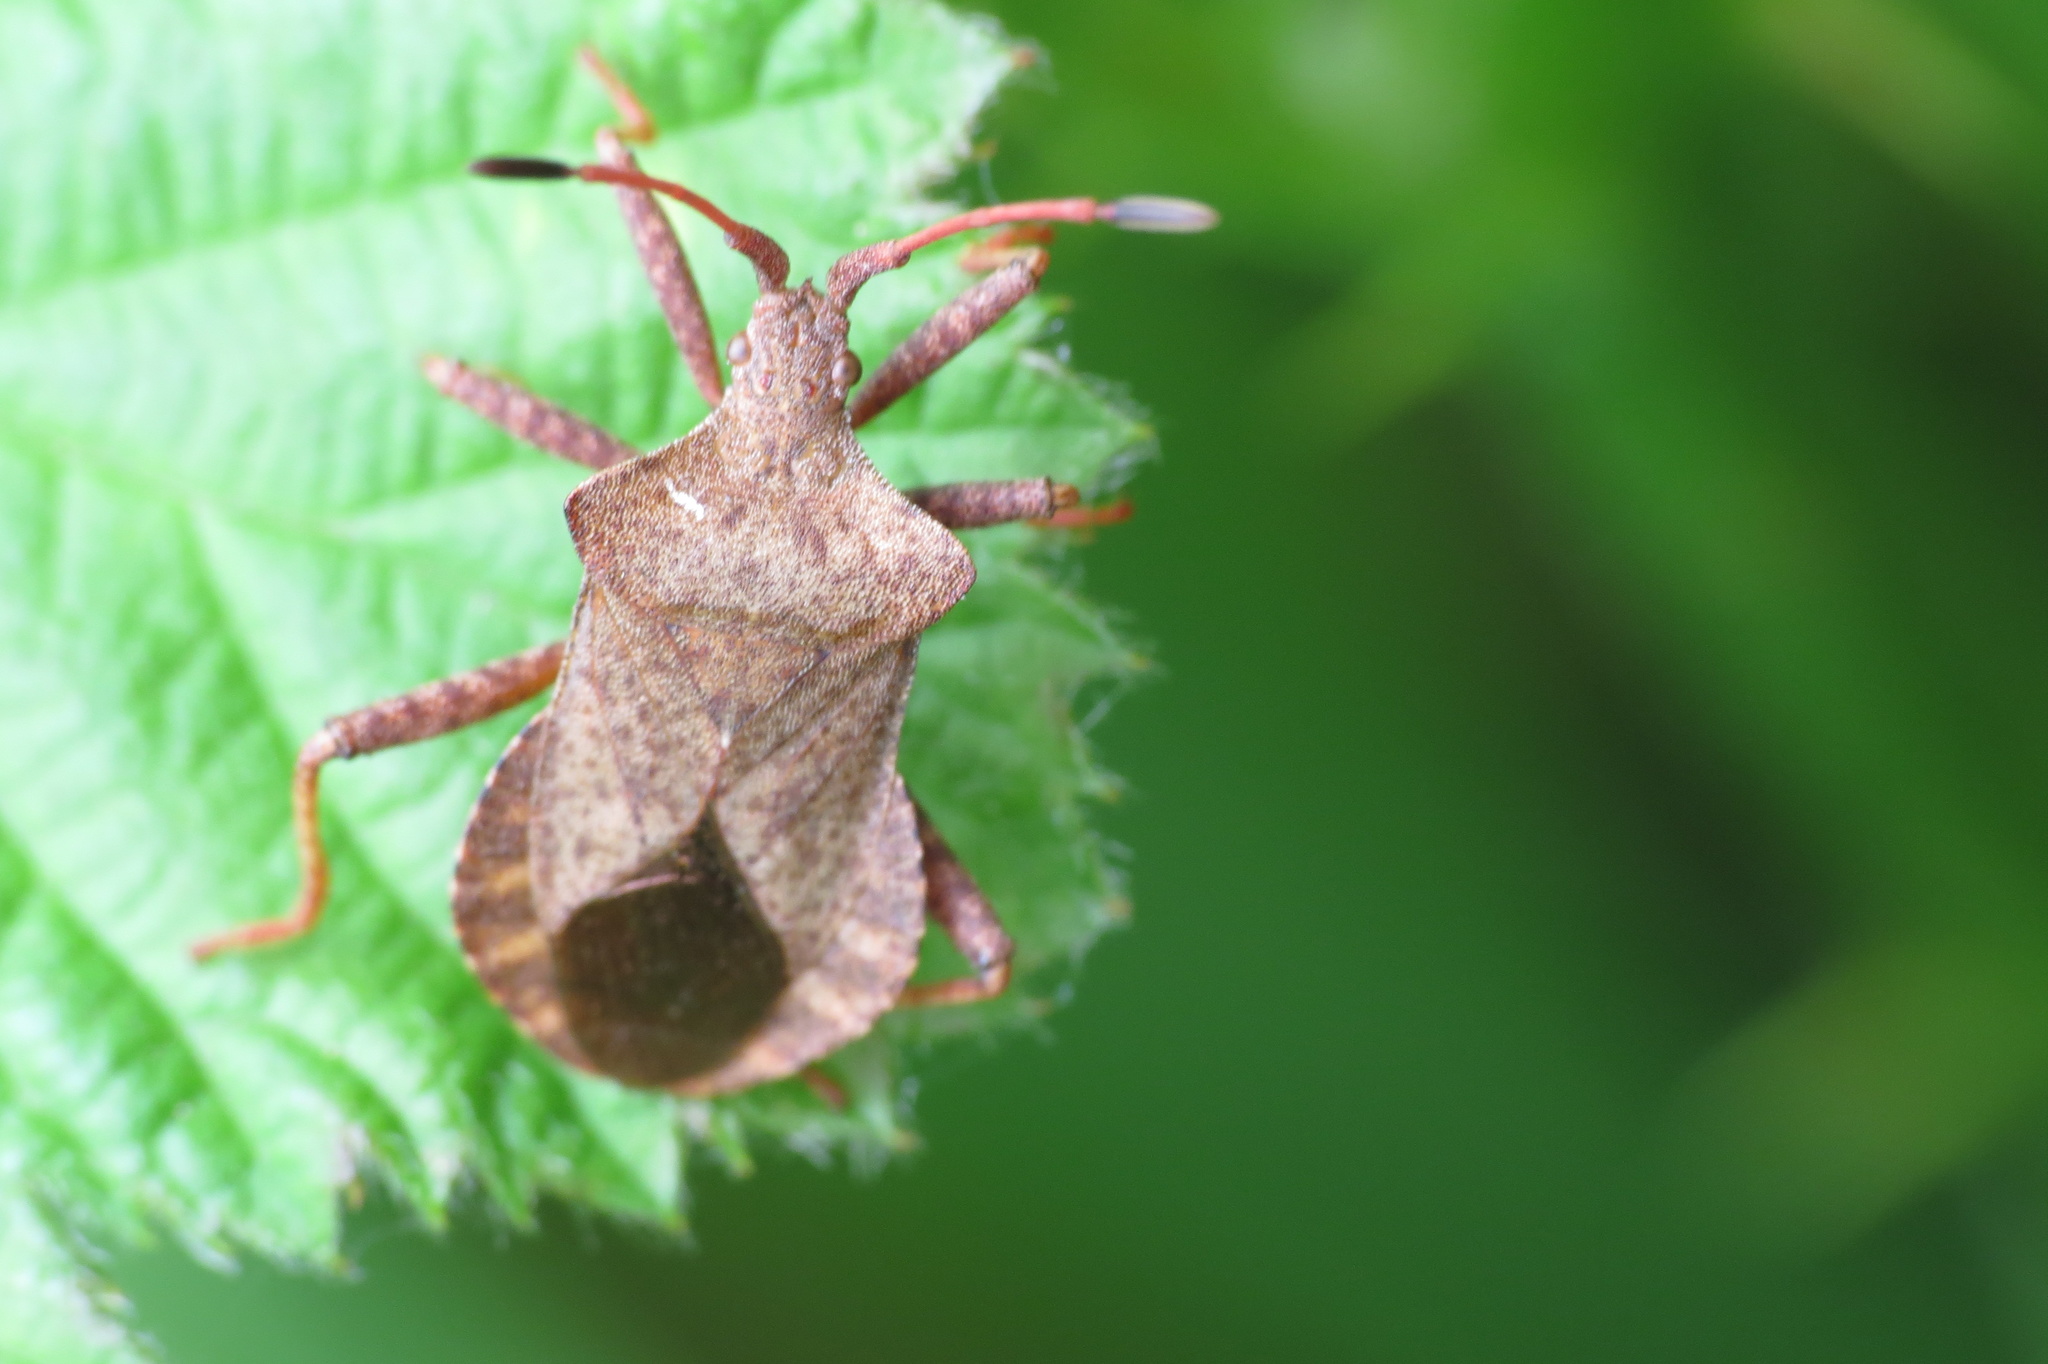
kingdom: Animalia
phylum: Arthropoda
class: Insecta
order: Hemiptera
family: Coreidae
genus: Coreus
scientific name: Coreus marginatus
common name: Dock bug
